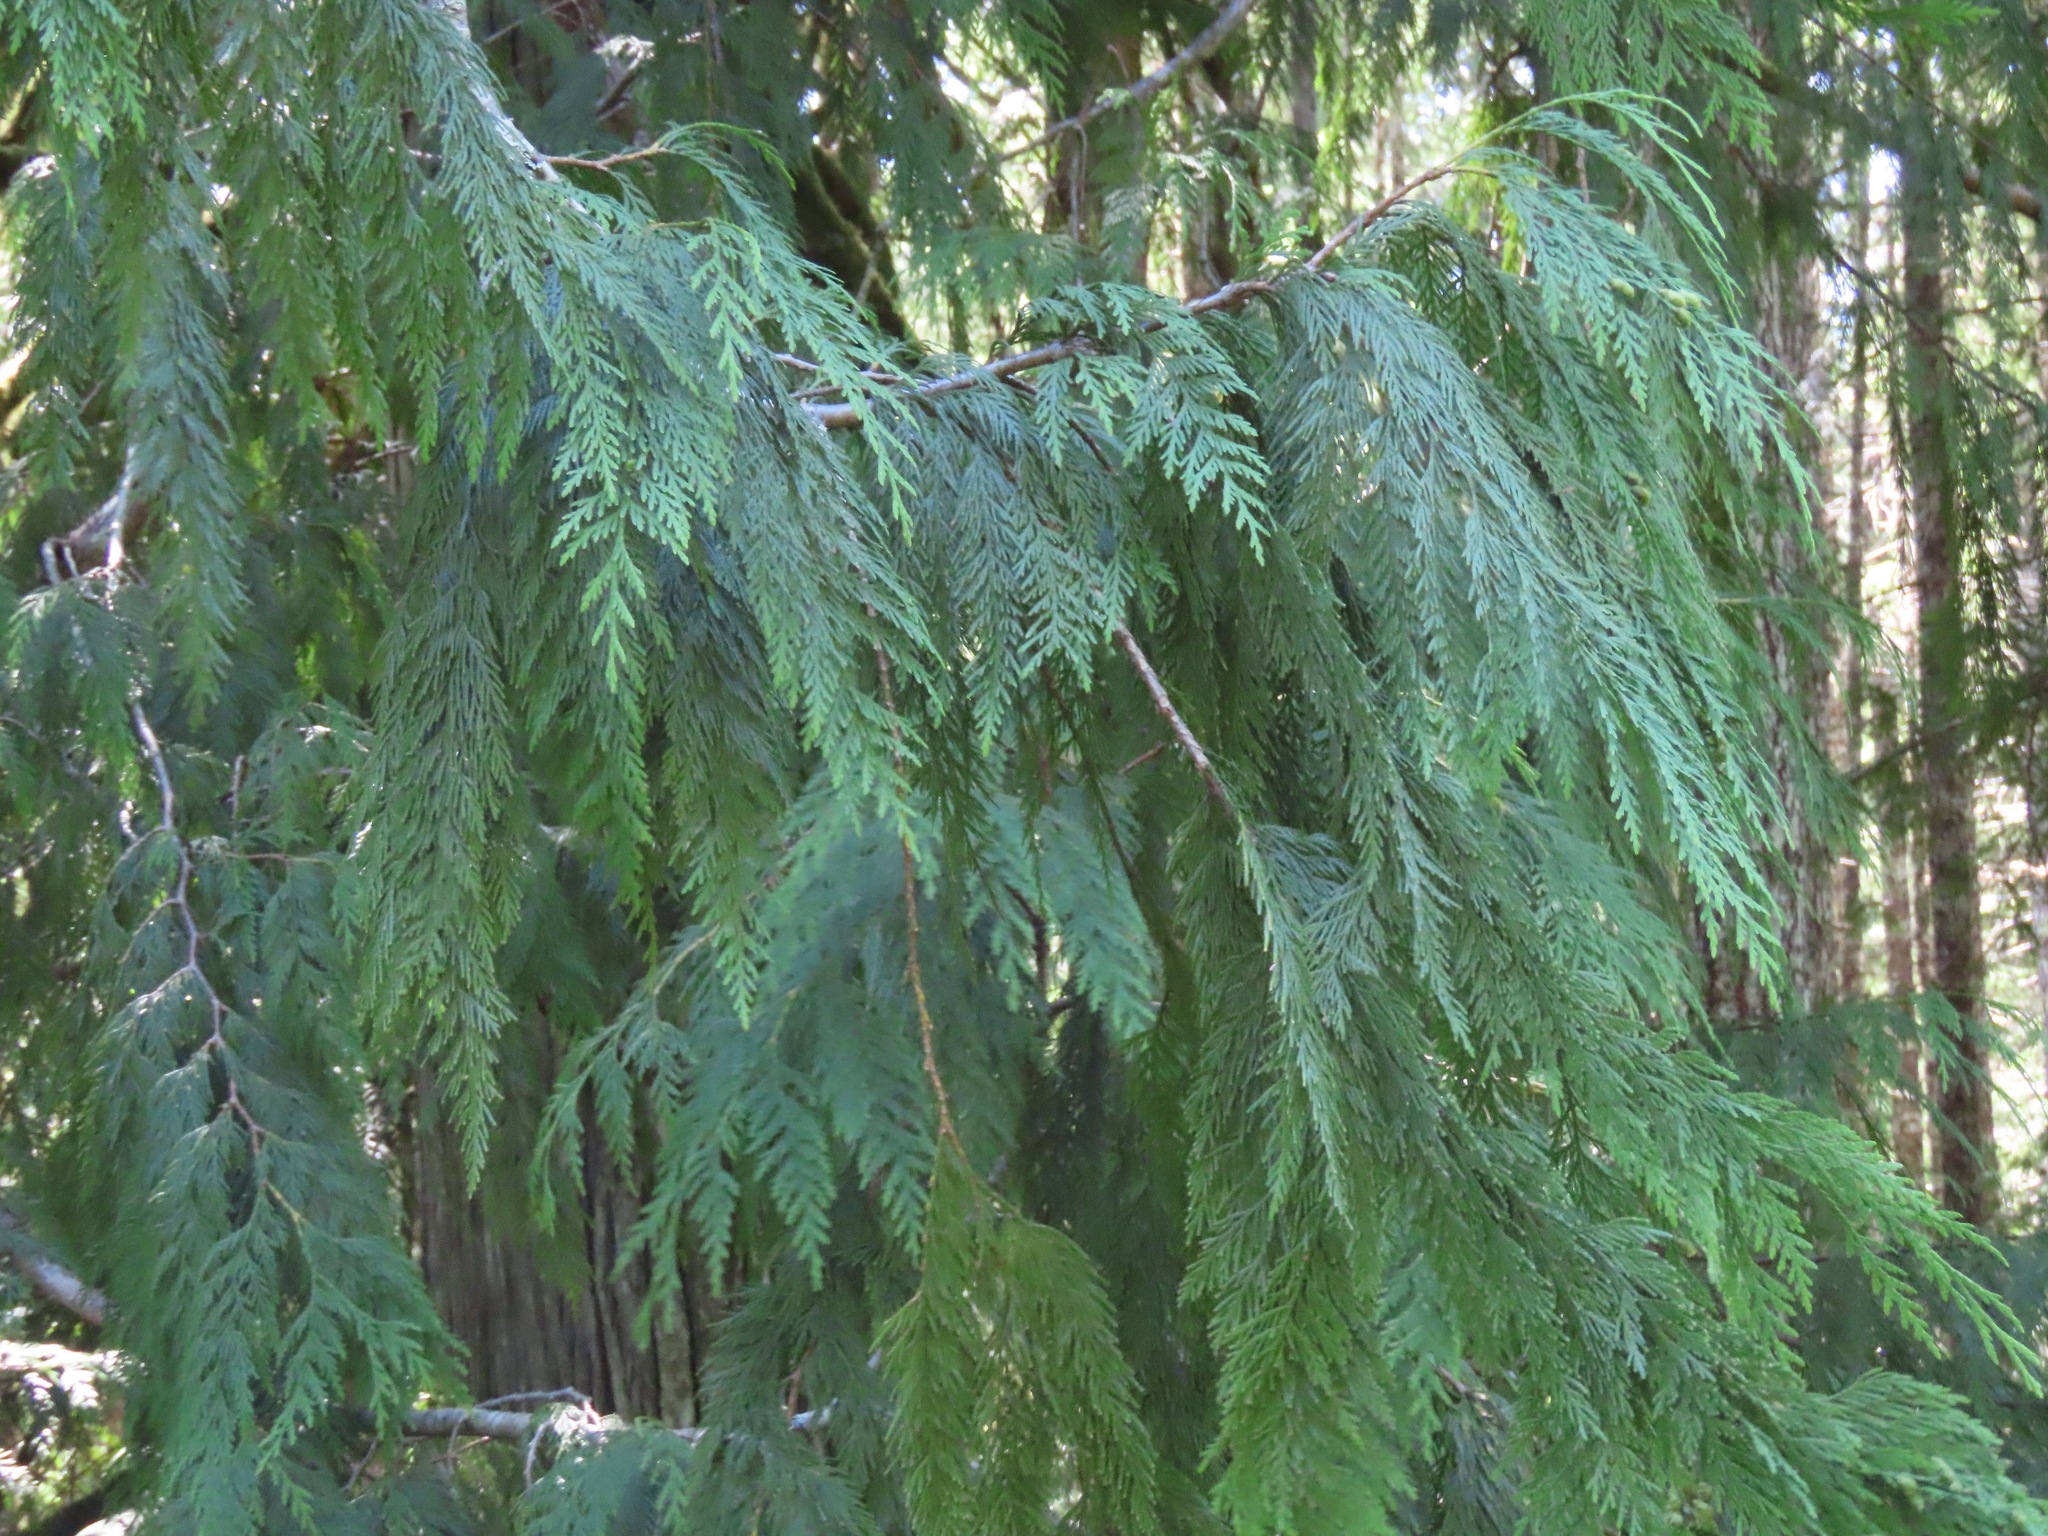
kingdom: Plantae
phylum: Tracheophyta
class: Pinopsida
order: Pinales
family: Cupressaceae
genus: Thuja
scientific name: Thuja plicata
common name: Western red-cedar
